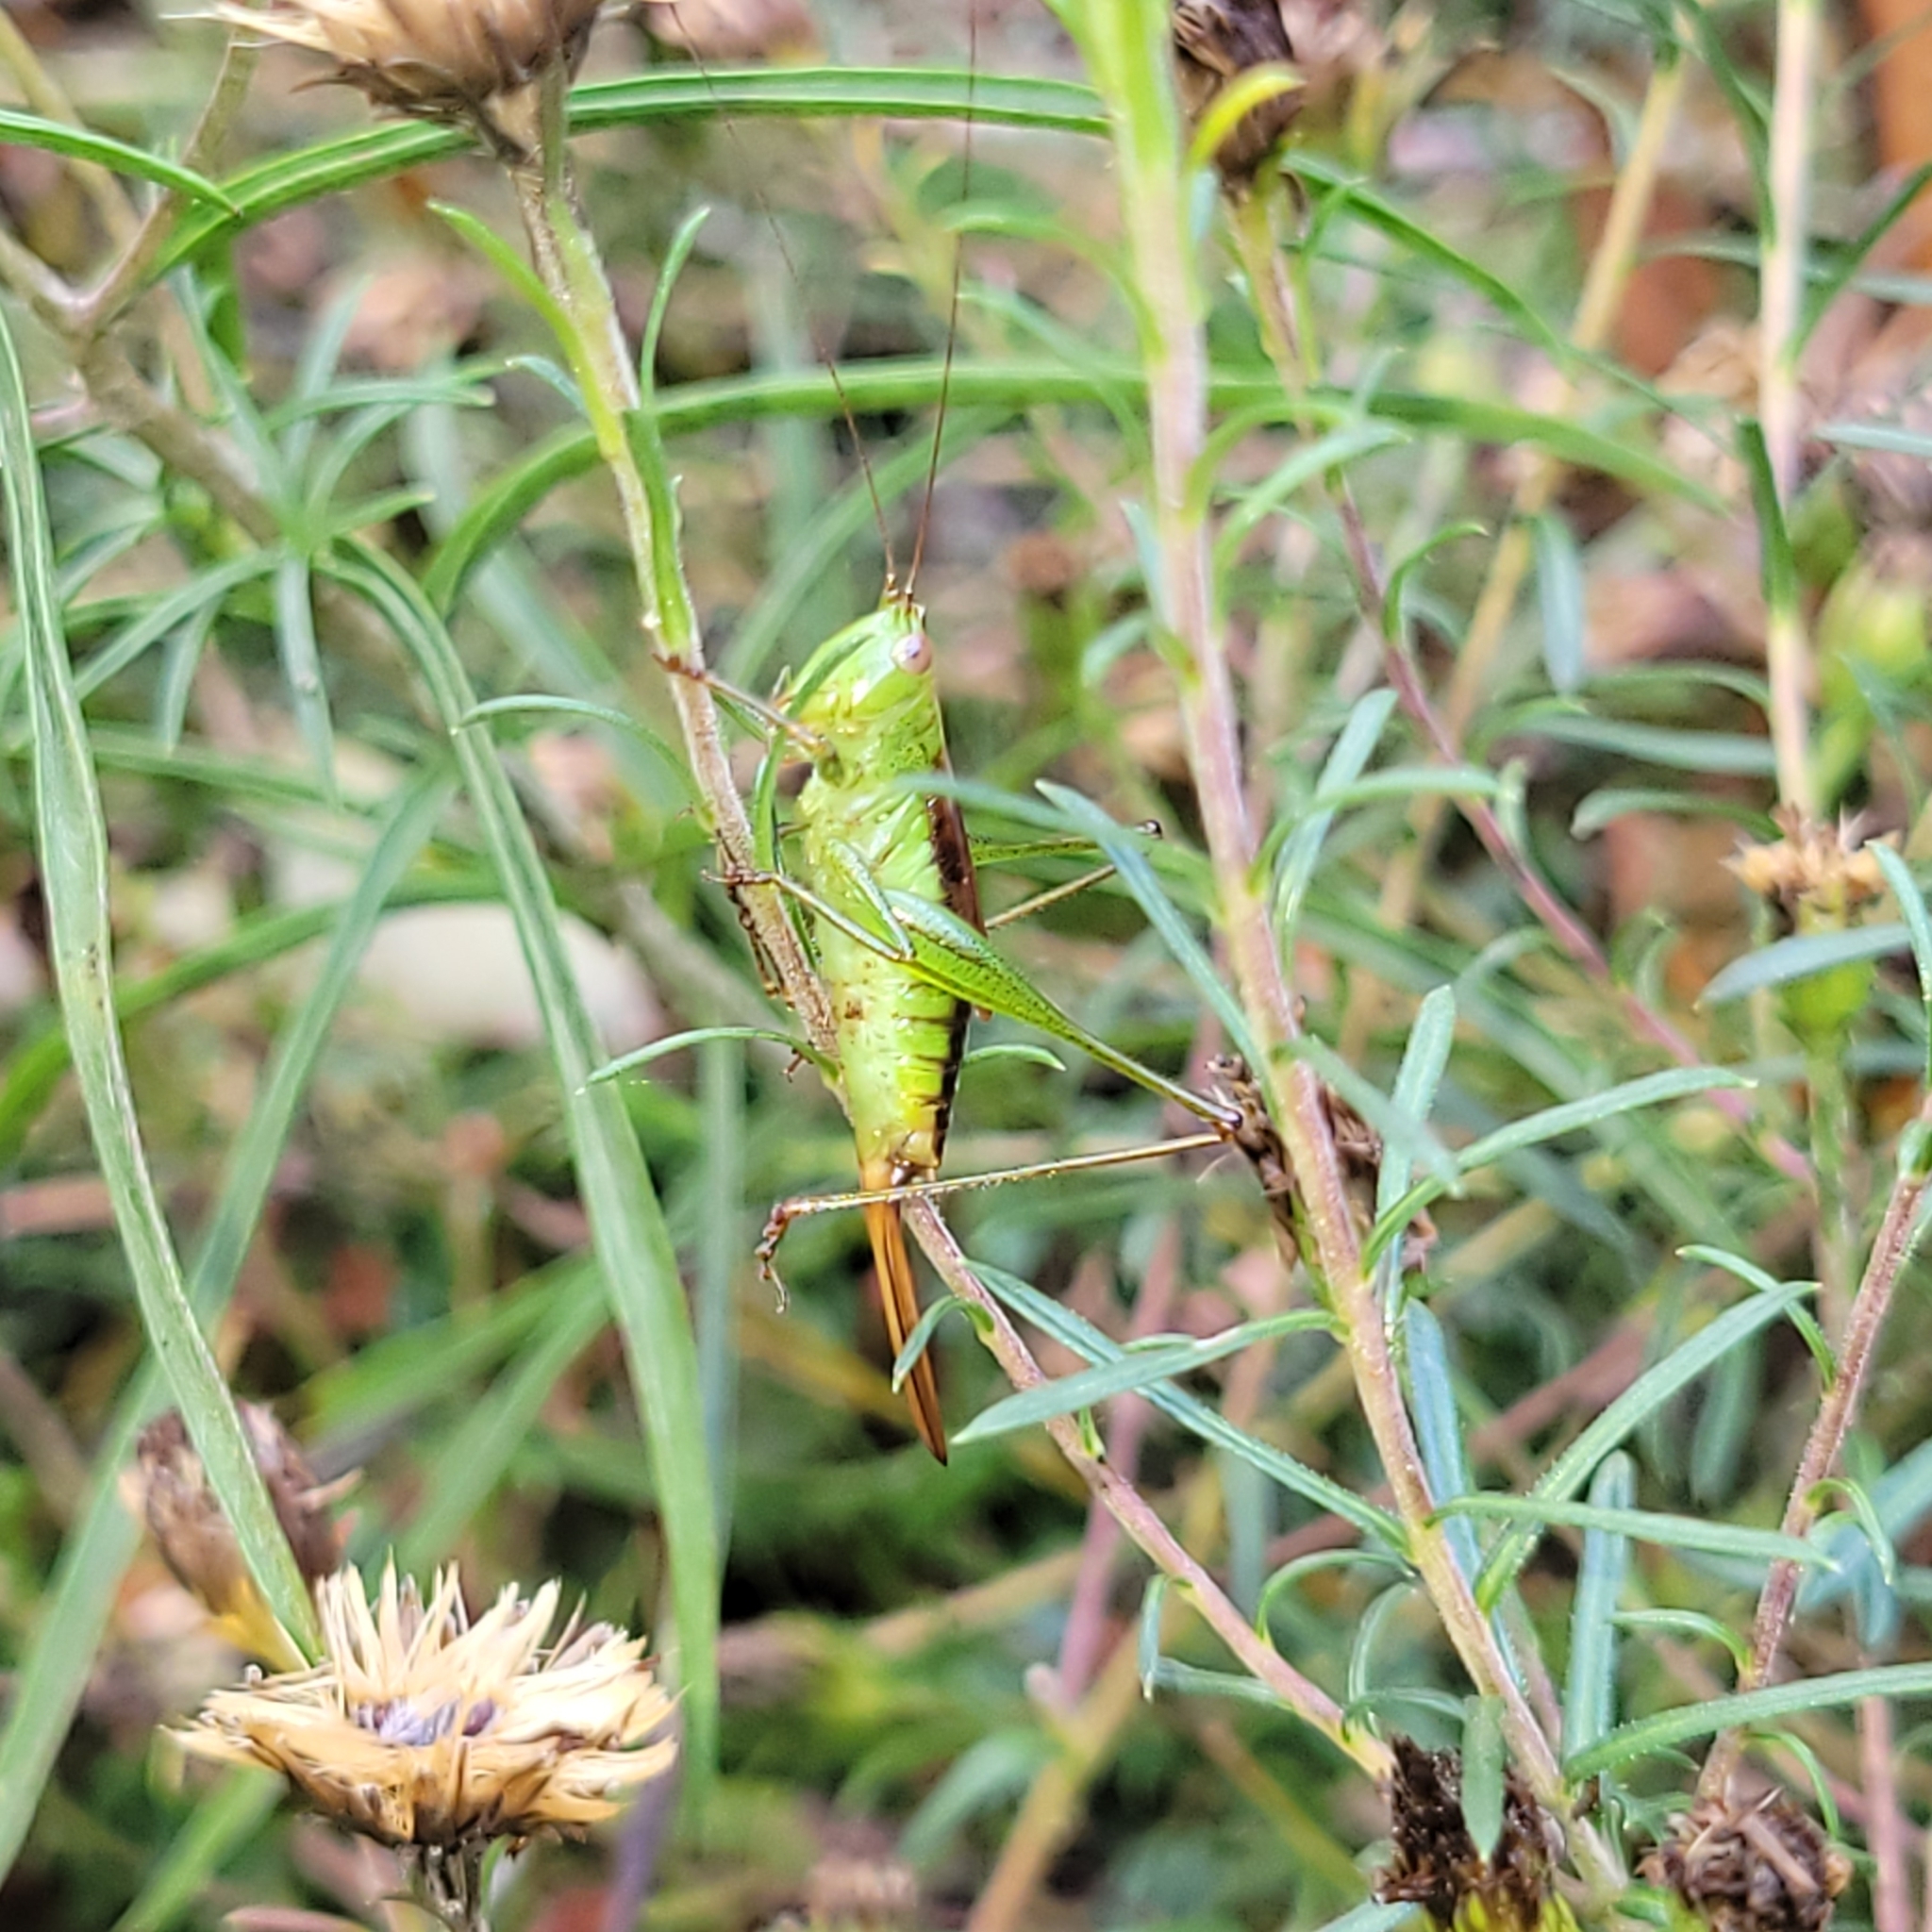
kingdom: Animalia
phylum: Arthropoda
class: Insecta
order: Orthoptera
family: Tettigoniidae
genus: Conocephalus
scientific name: Conocephalus brevipennis
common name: Short-winged meadow katydid
